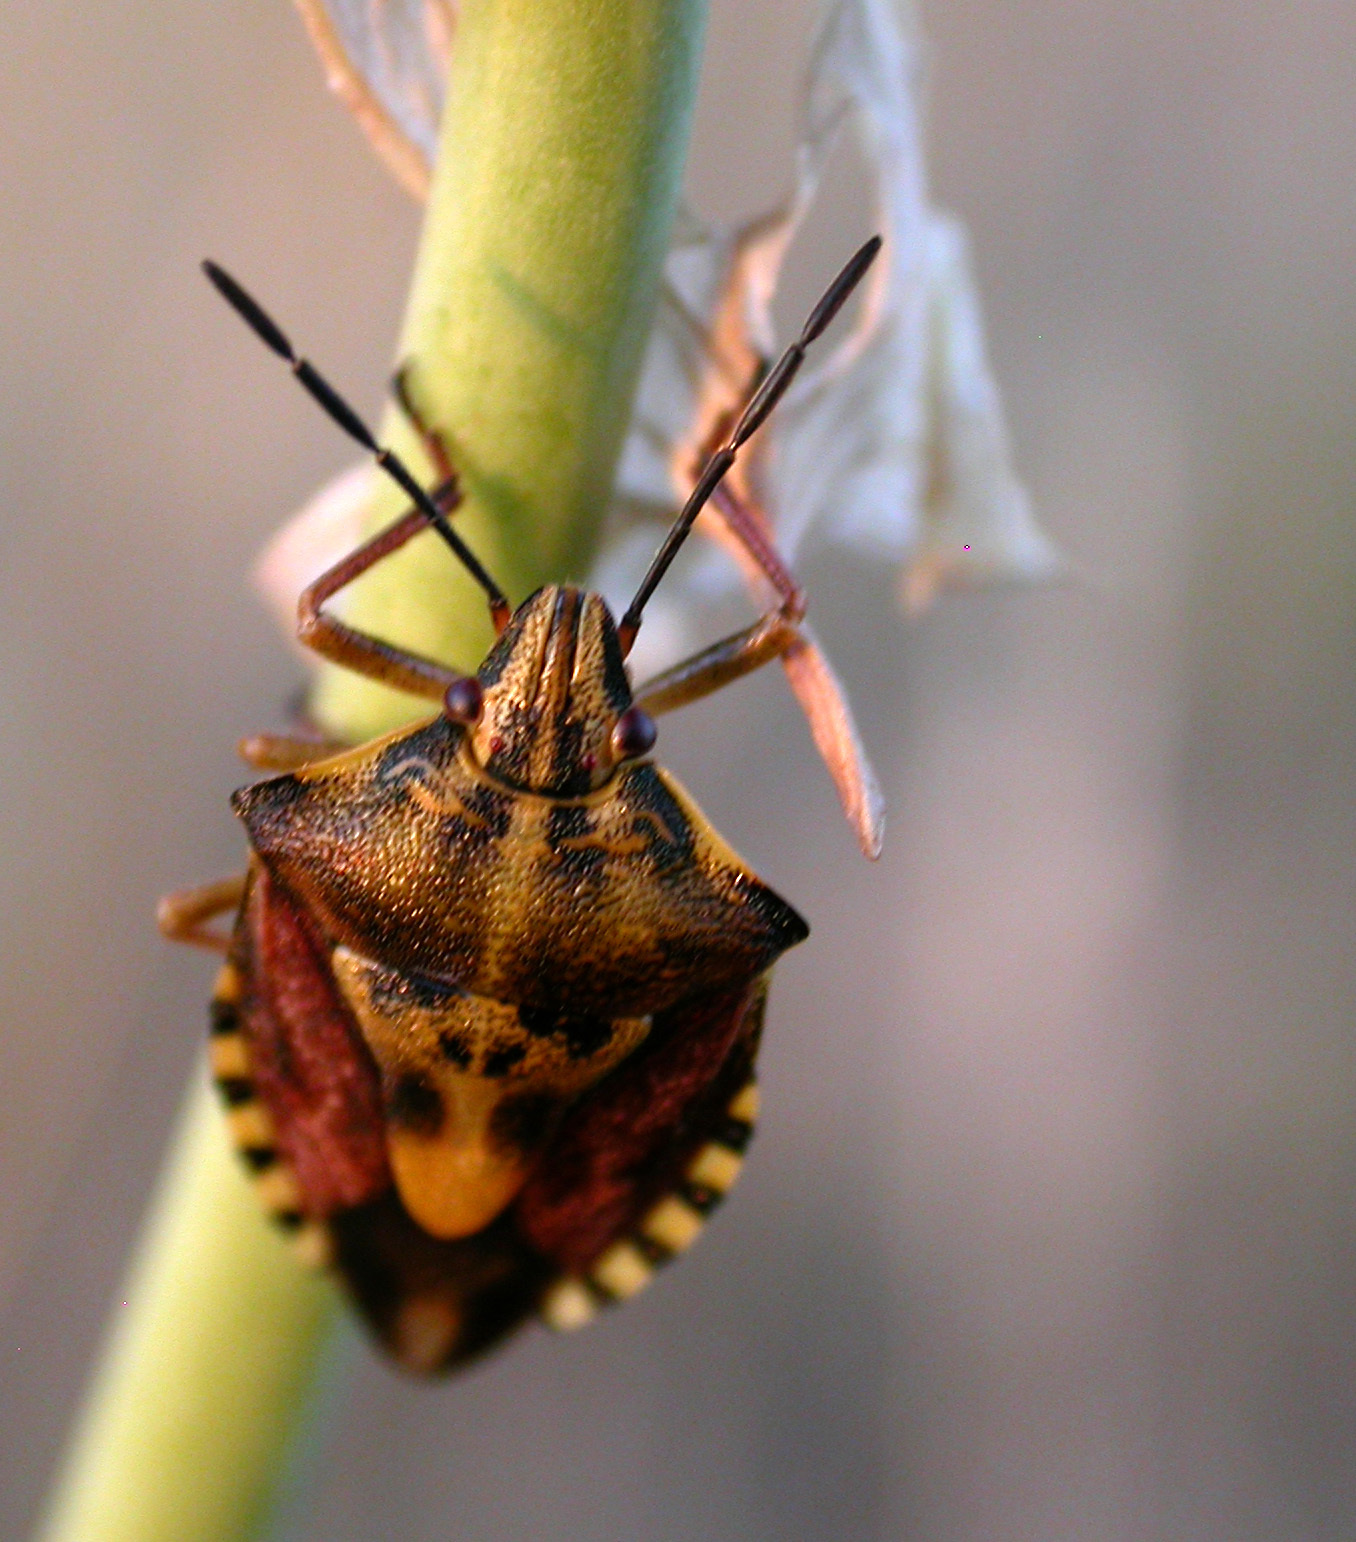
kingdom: Animalia
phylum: Arthropoda
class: Insecta
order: Hemiptera
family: Pentatomidae
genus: Carpocoris
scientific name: Carpocoris purpureipennis
